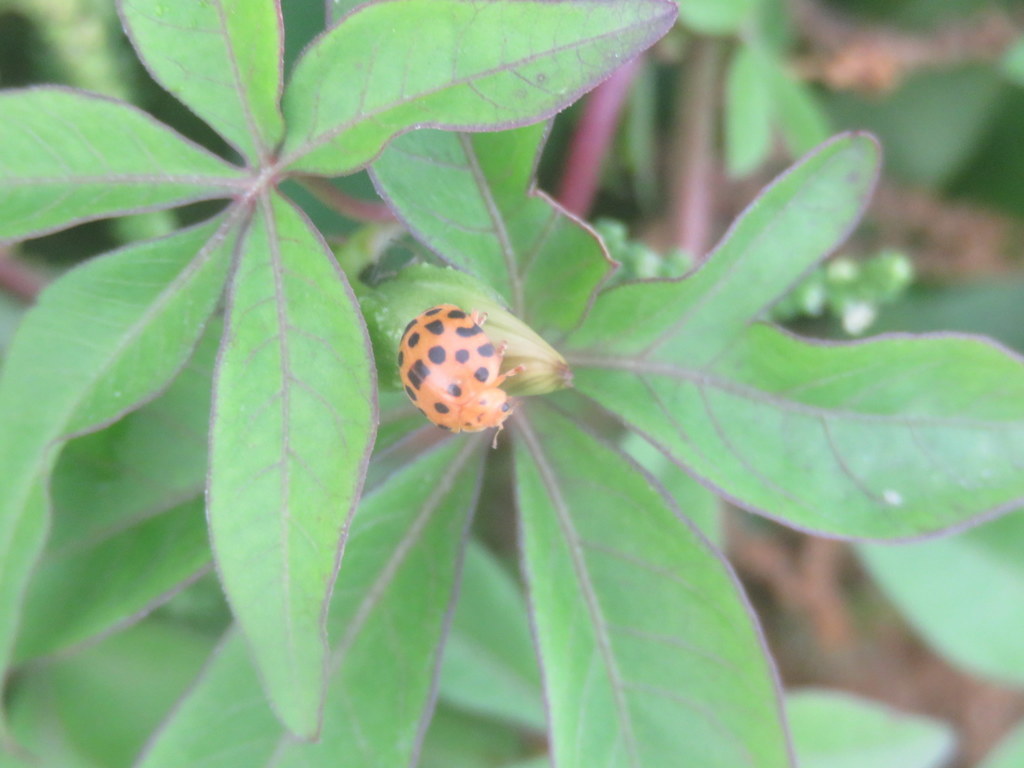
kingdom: Animalia
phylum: Arthropoda
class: Insecta
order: Coleoptera
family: Coccinellidae
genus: Henosepilachna
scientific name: Henosepilachna vigintioctopunctata
